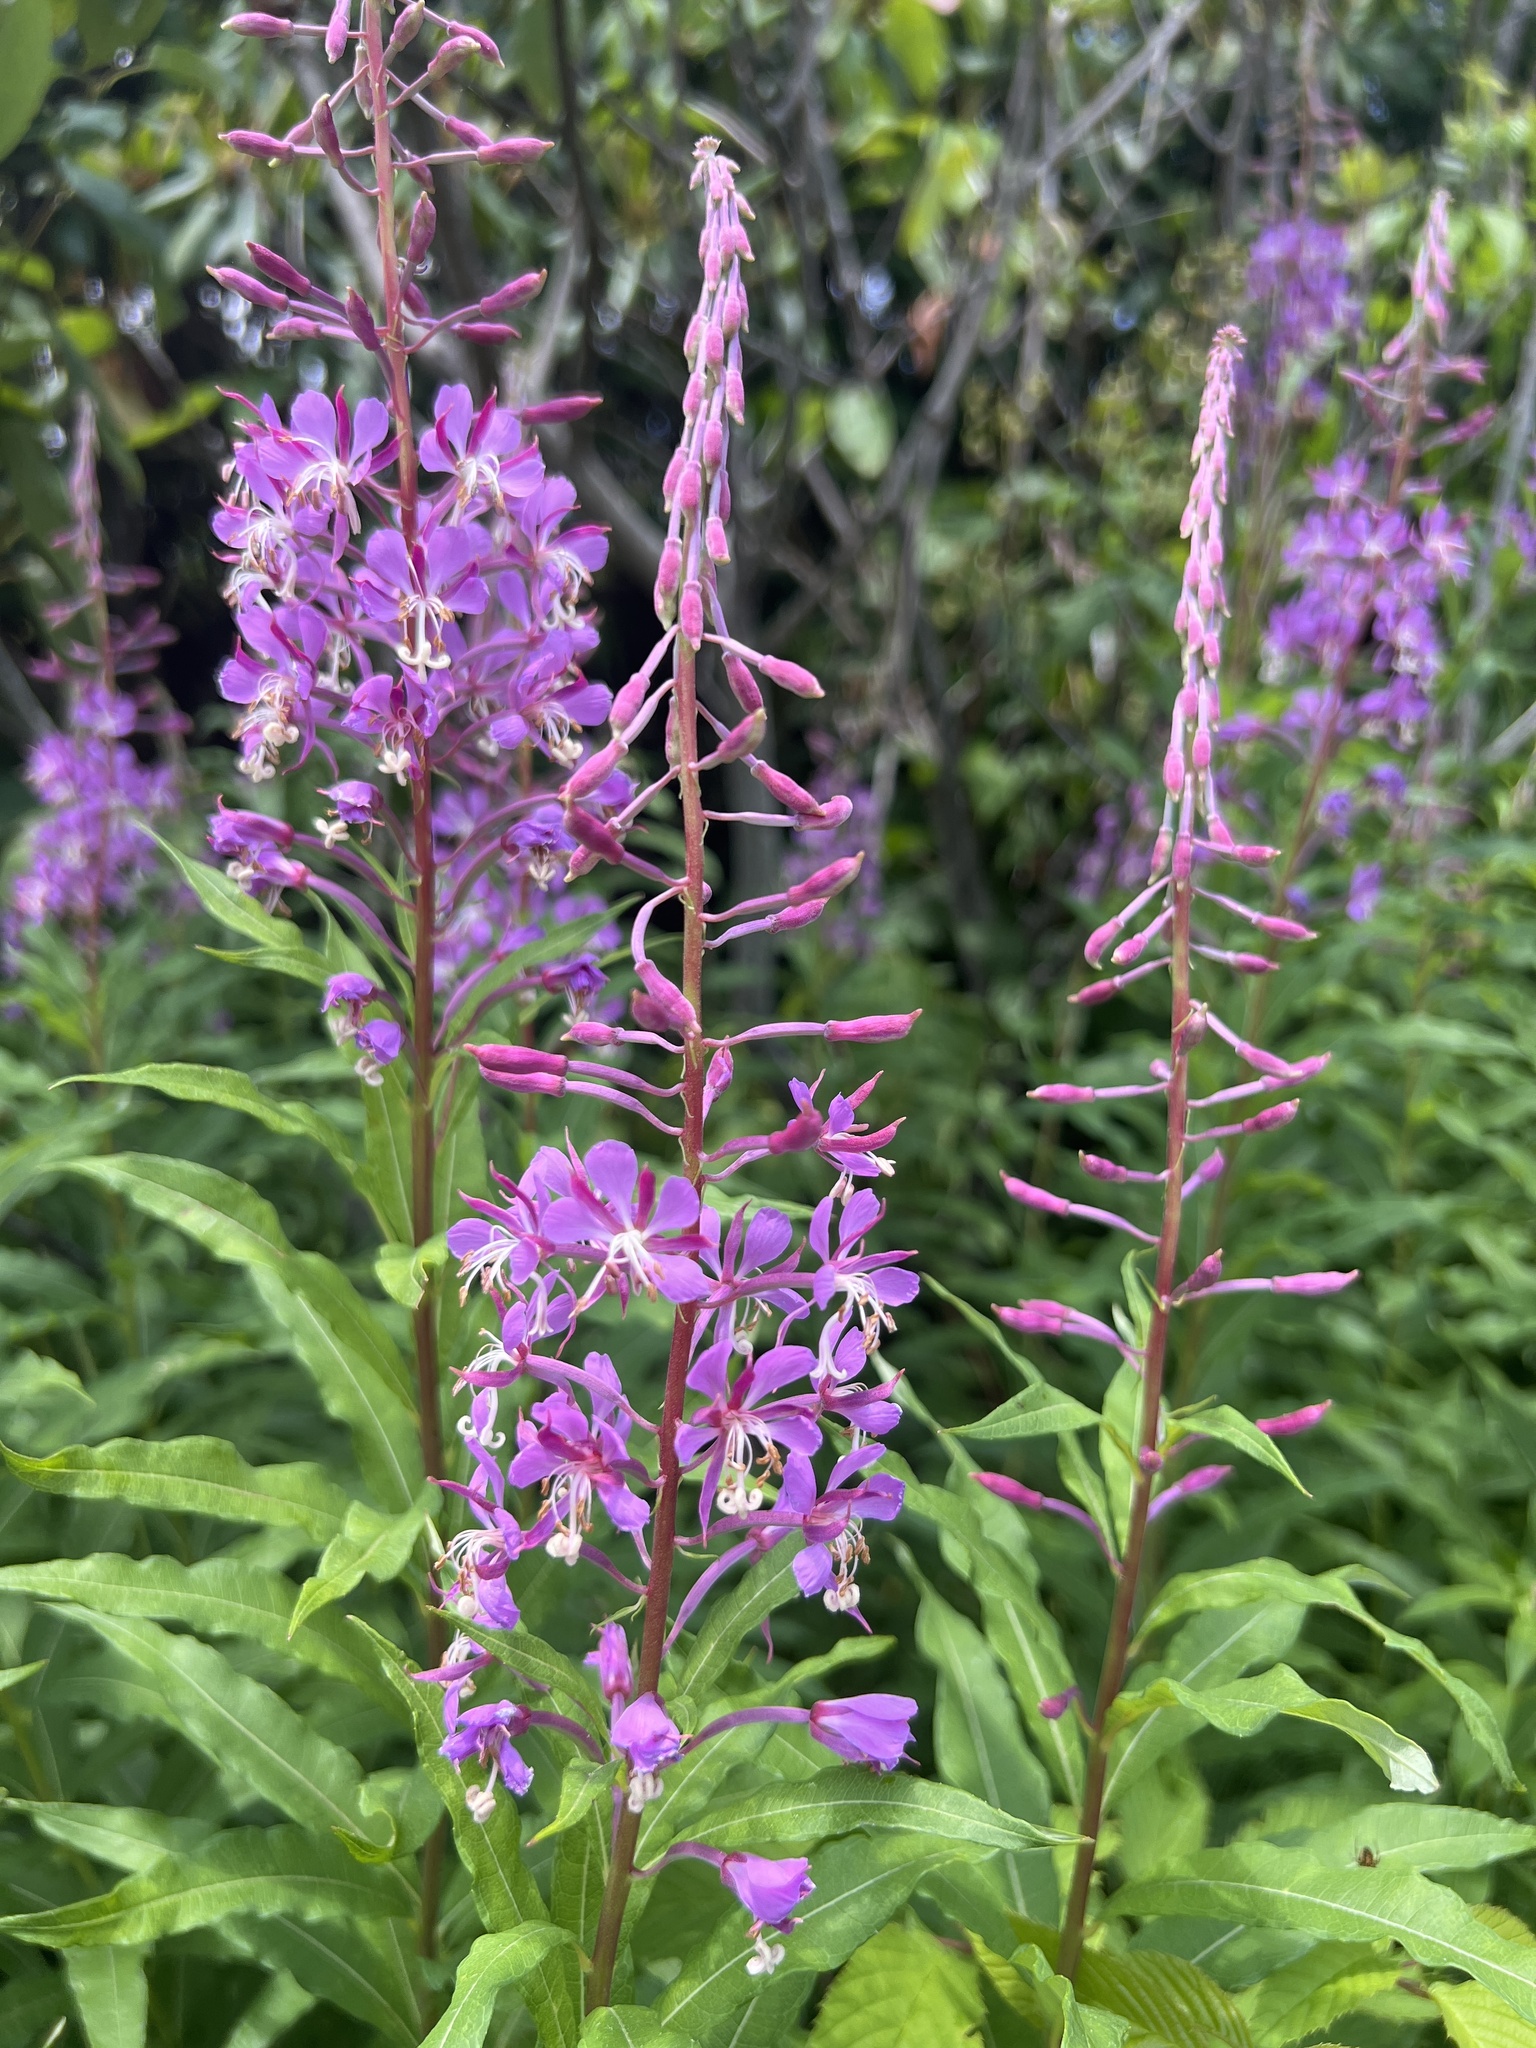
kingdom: Plantae
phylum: Tracheophyta
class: Magnoliopsida
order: Myrtales
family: Onagraceae
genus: Chamaenerion
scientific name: Chamaenerion angustifolium
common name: Fireweed
